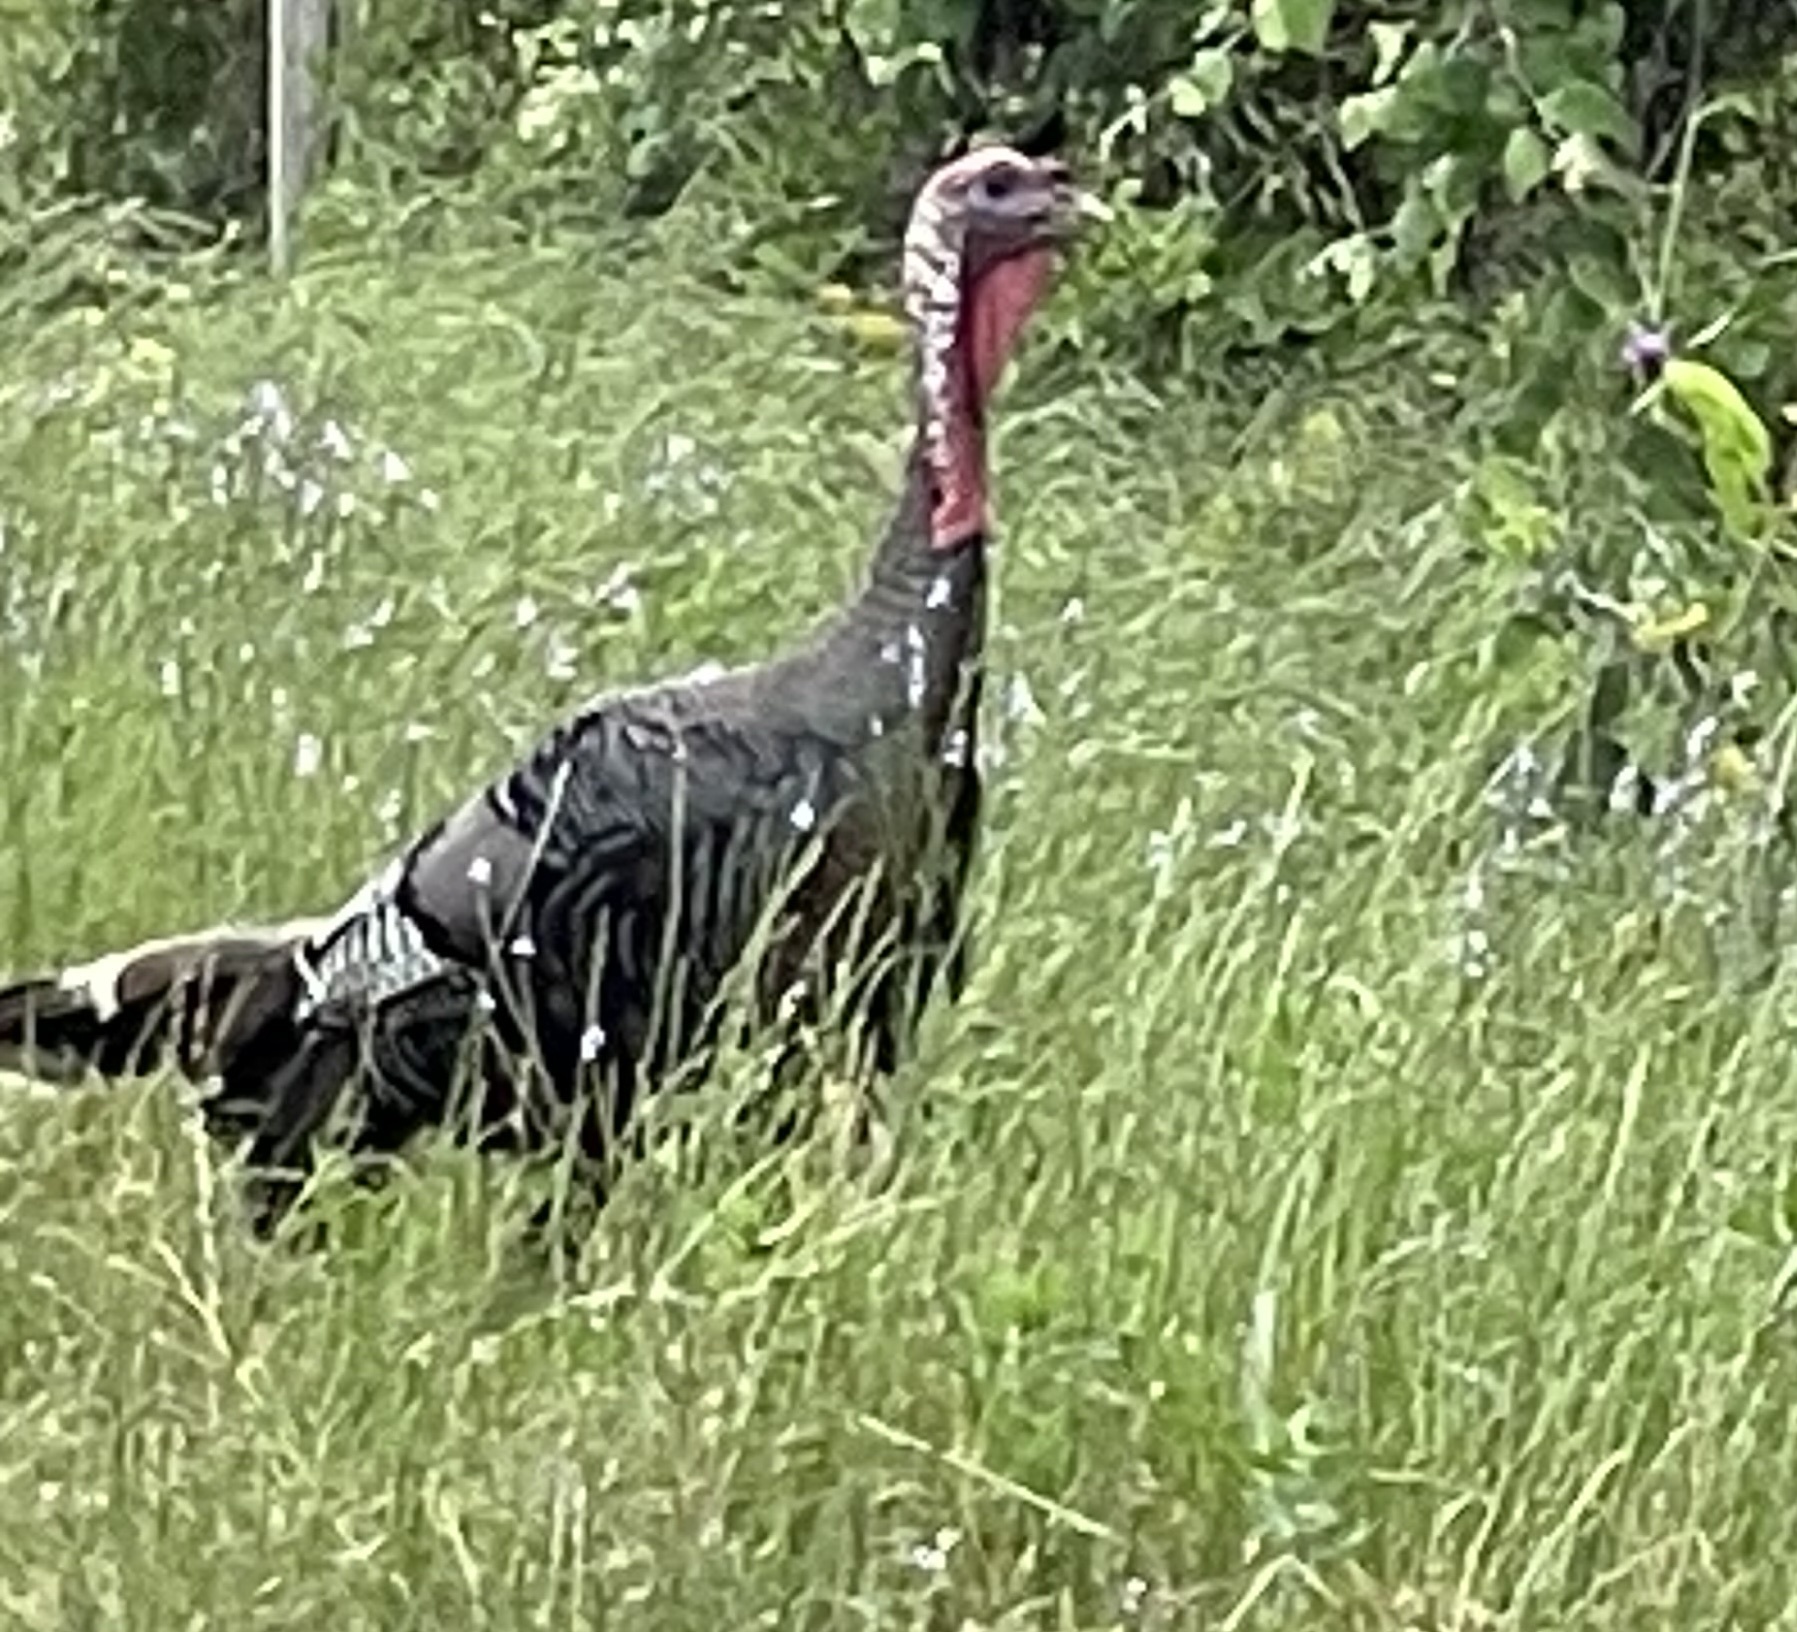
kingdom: Animalia
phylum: Chordata
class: Aves
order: Galliformes
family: Phasianidae
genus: Meleagris
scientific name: Meleagris gallopavo
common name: Wild turkey
